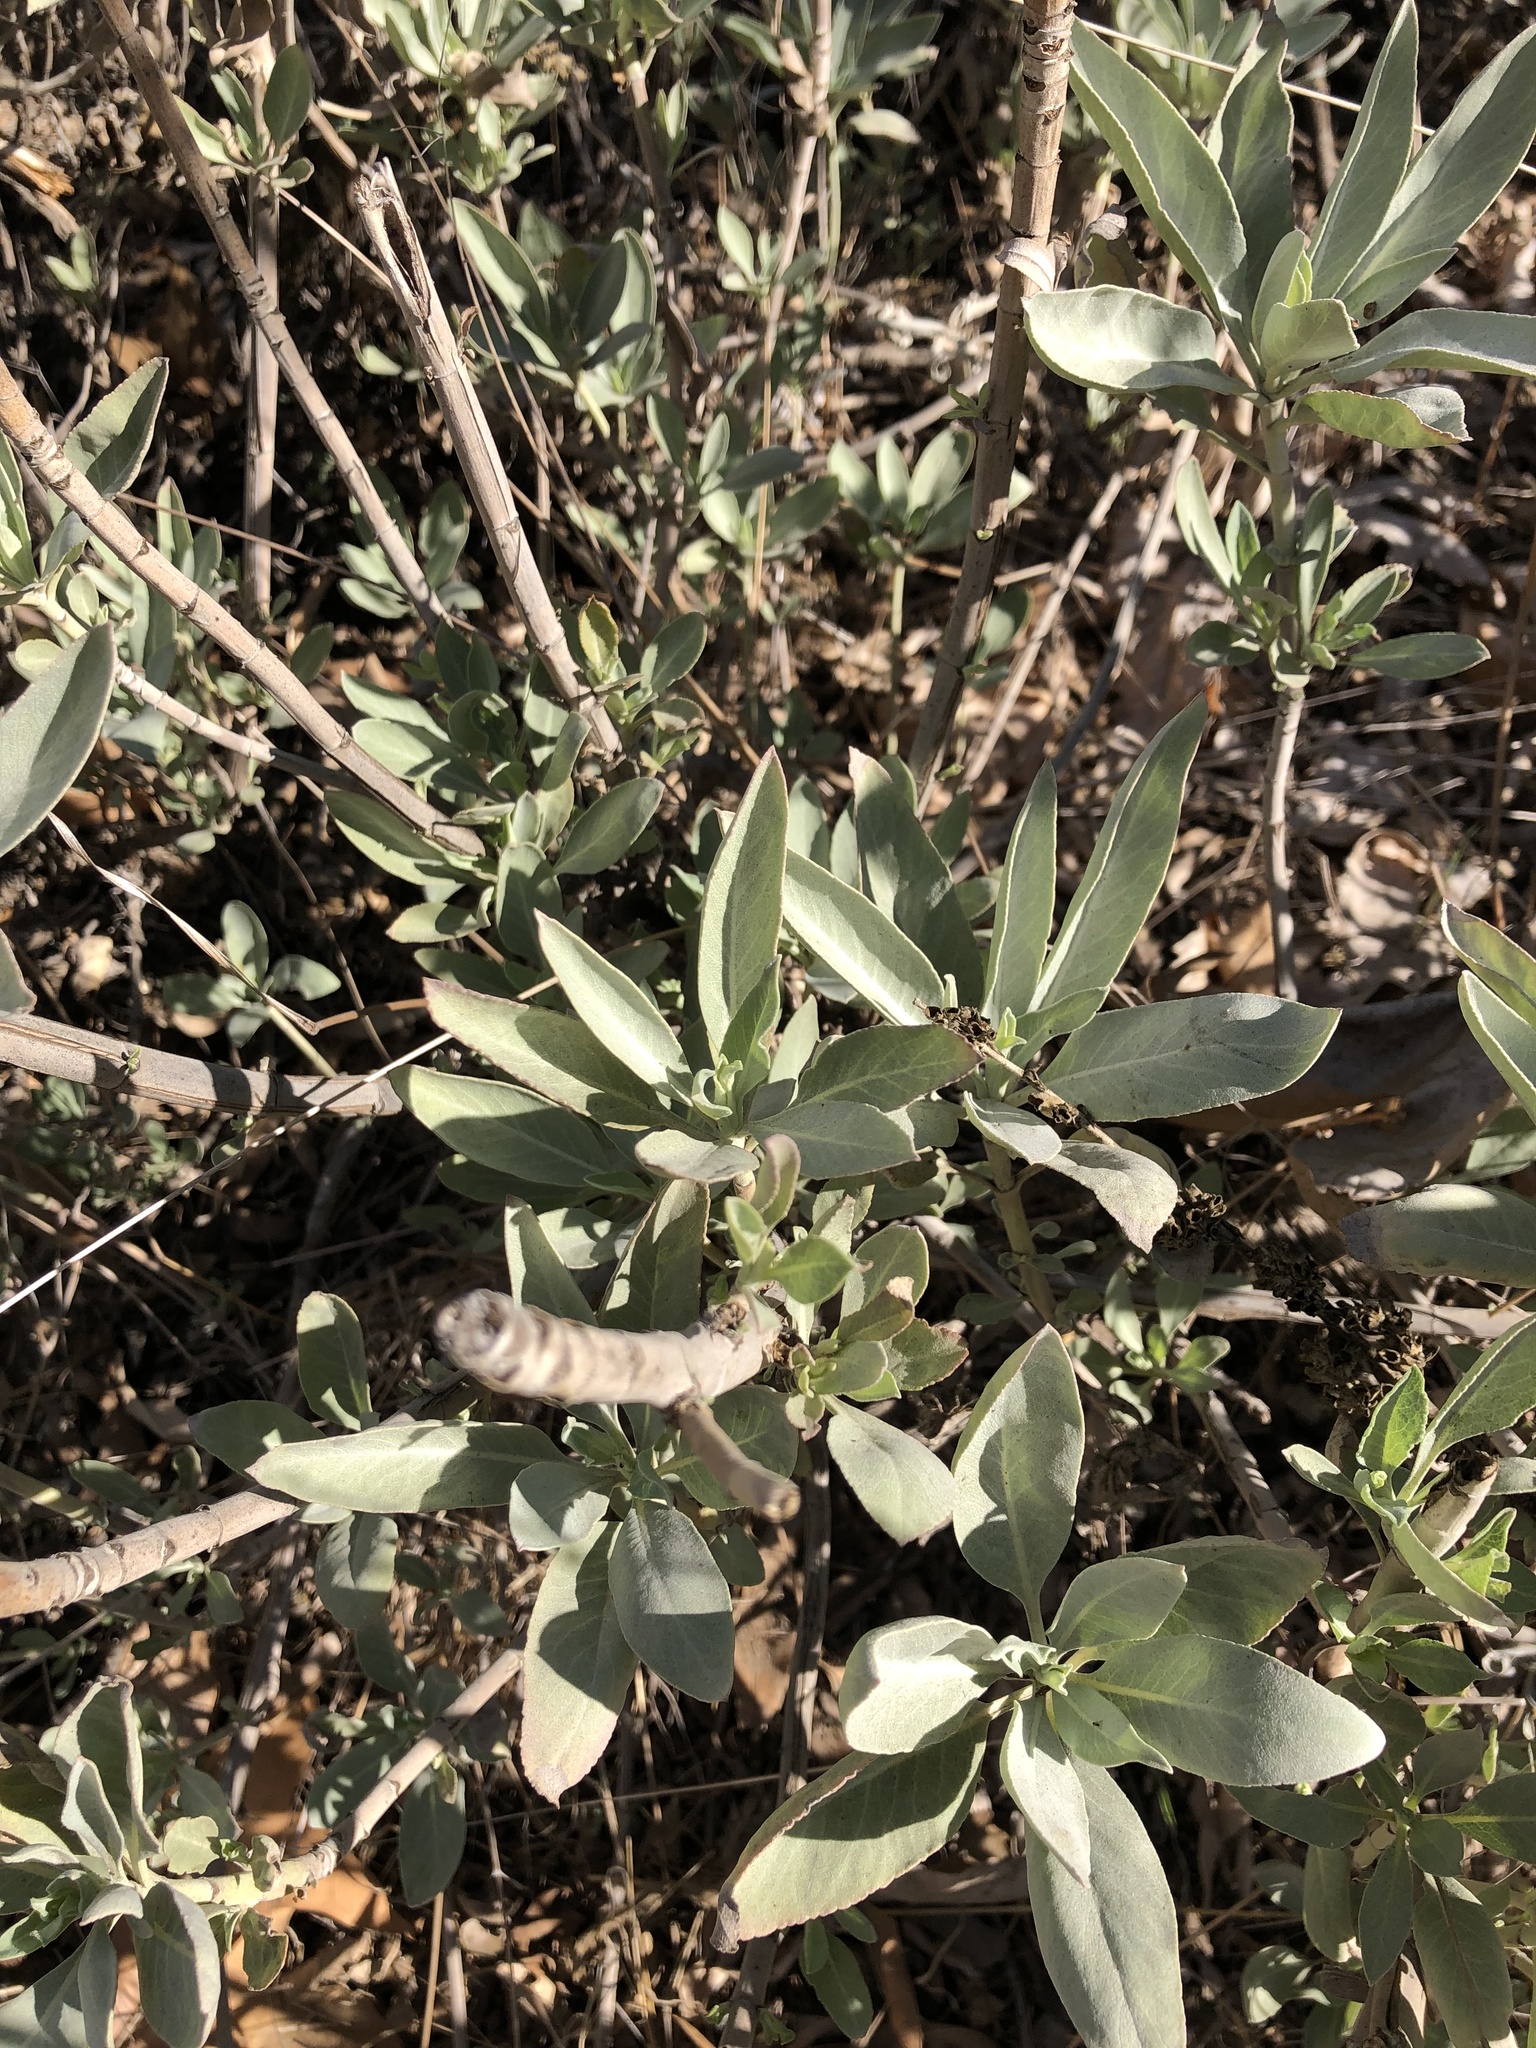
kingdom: Plantae
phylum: Tracheophyta
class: Magnoliopsida
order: Lamiales
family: Lamiaceae
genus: Salvia
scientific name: Salvia apiana
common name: White sage
